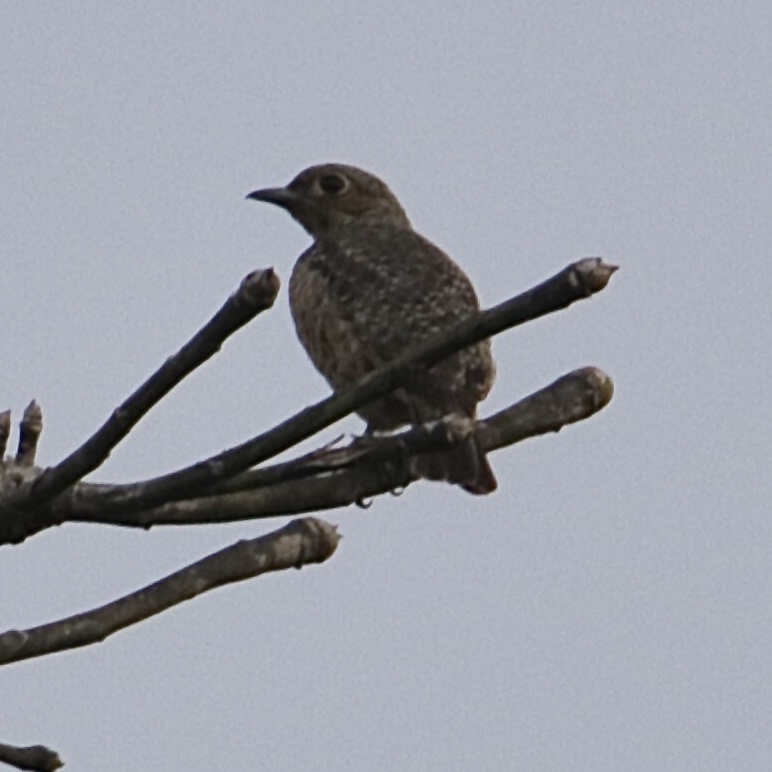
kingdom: Animalia
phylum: Chordata
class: Aves
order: Passeriformes
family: Cotingidae
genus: Cotinga
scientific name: Cotinga nattererii
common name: Blue cotinga
